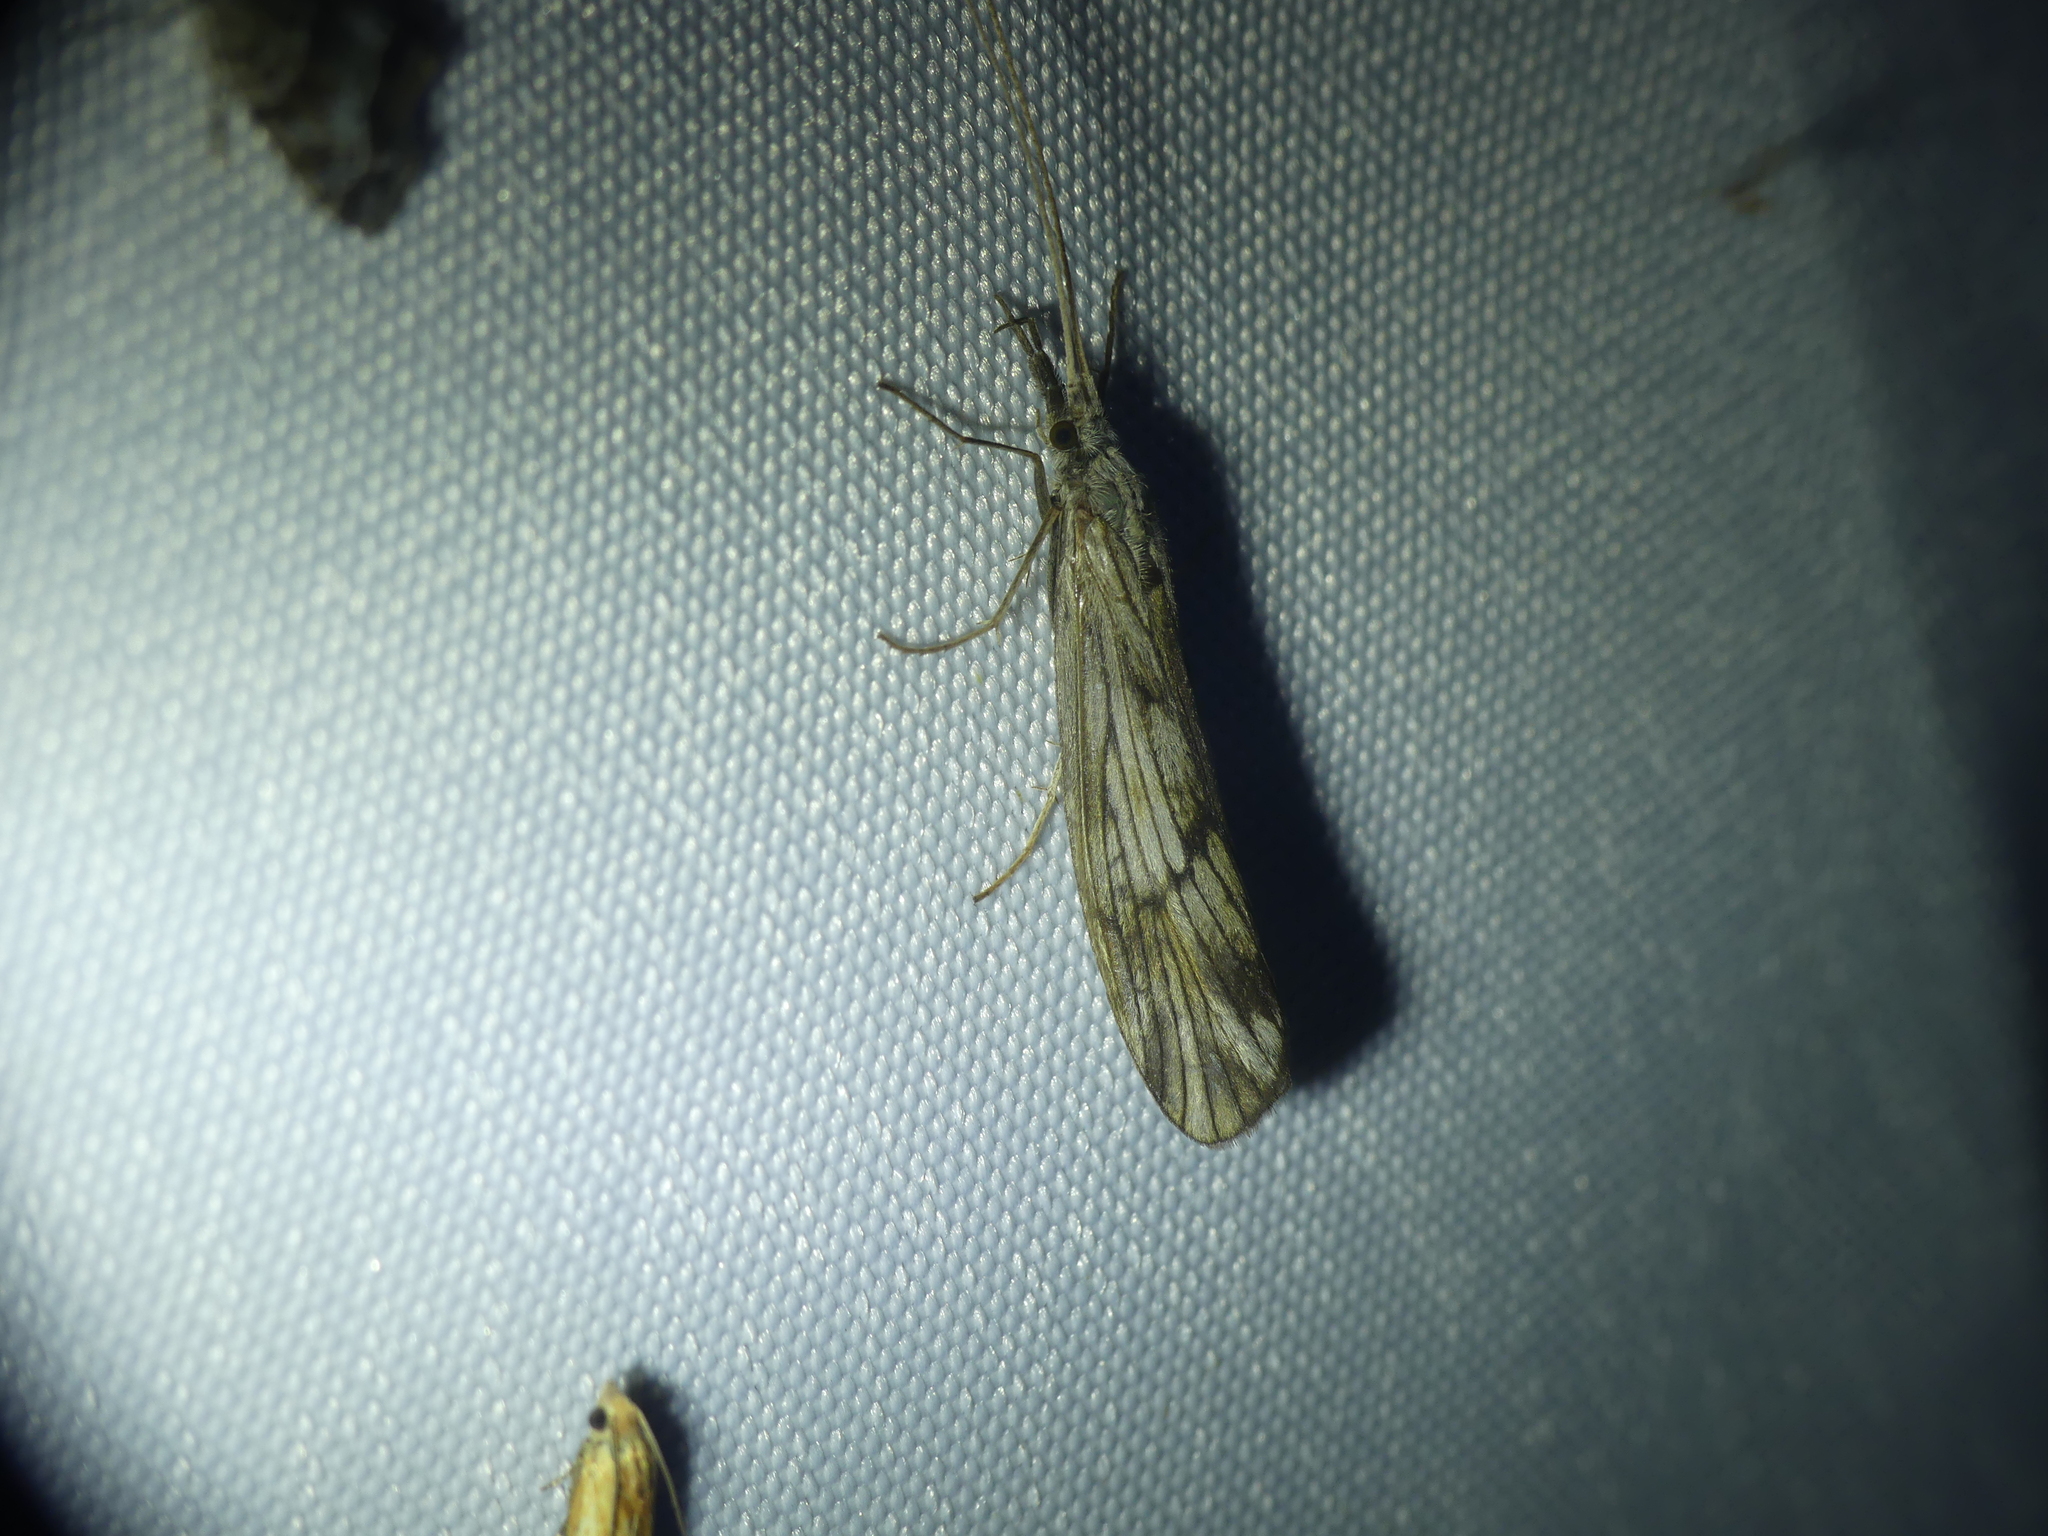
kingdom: Animalia
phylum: Arthropoda
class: Insecta
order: Trichoptera
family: Odontoceridae
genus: Odontocerum
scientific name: Odontocerum albicorne
